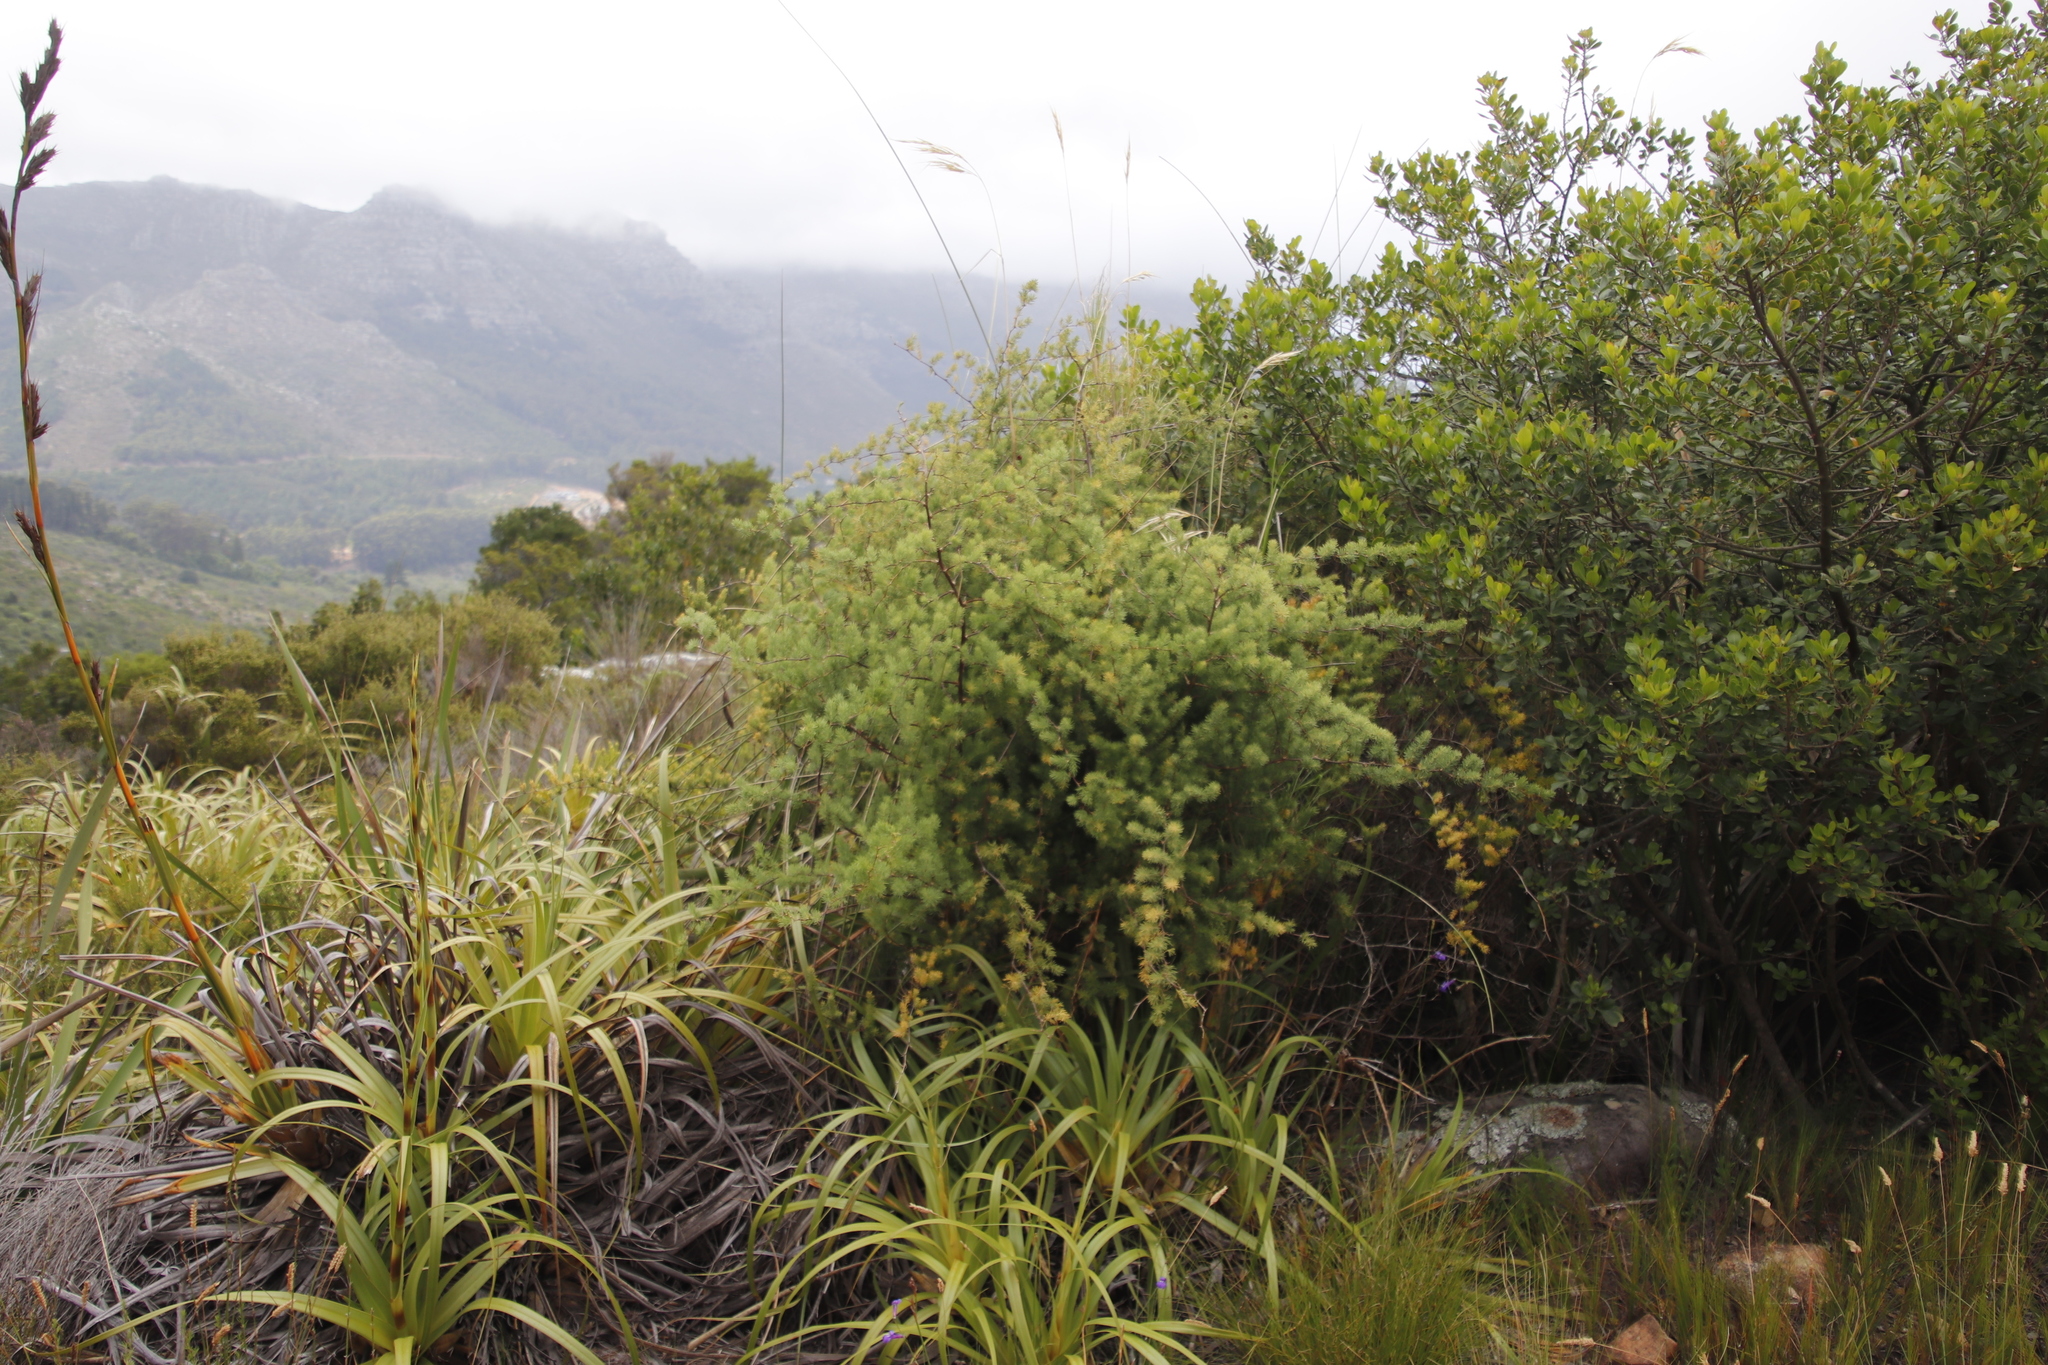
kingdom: Plantae
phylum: Tracheophyta
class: Liliopsida
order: Asparagales
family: Asparagaceae
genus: Asparagus
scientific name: Asparagus rubicundus
